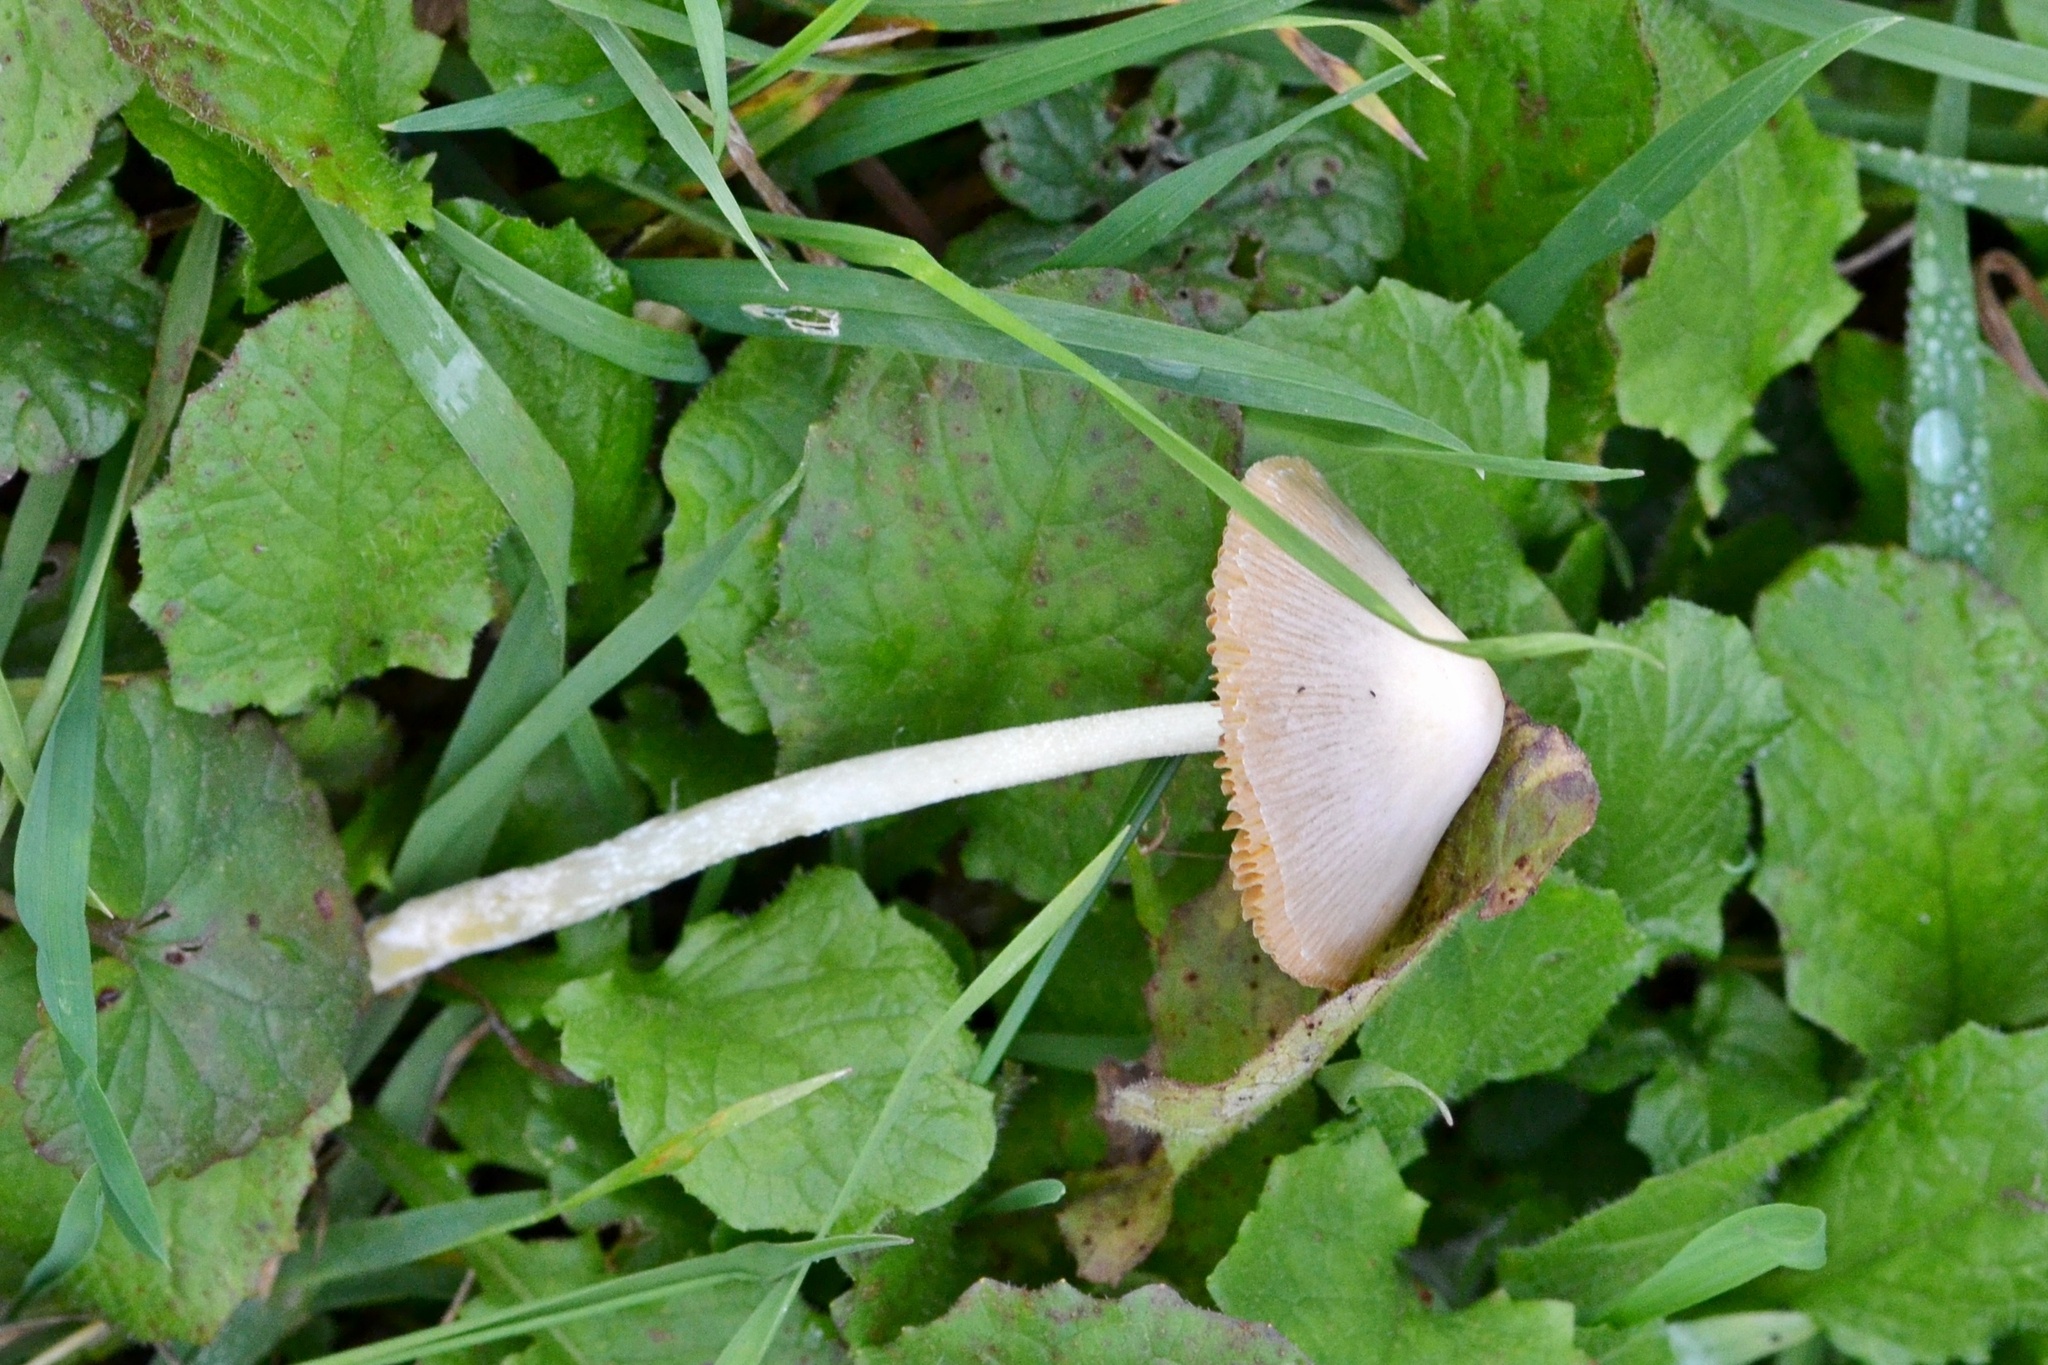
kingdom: Fungi
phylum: Basidiomycota
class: Agaricomycetes
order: Agaricales
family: Bolbitiaceae
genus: Bolbitius
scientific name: Bolbitius titubans
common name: Yellow fieldcap
